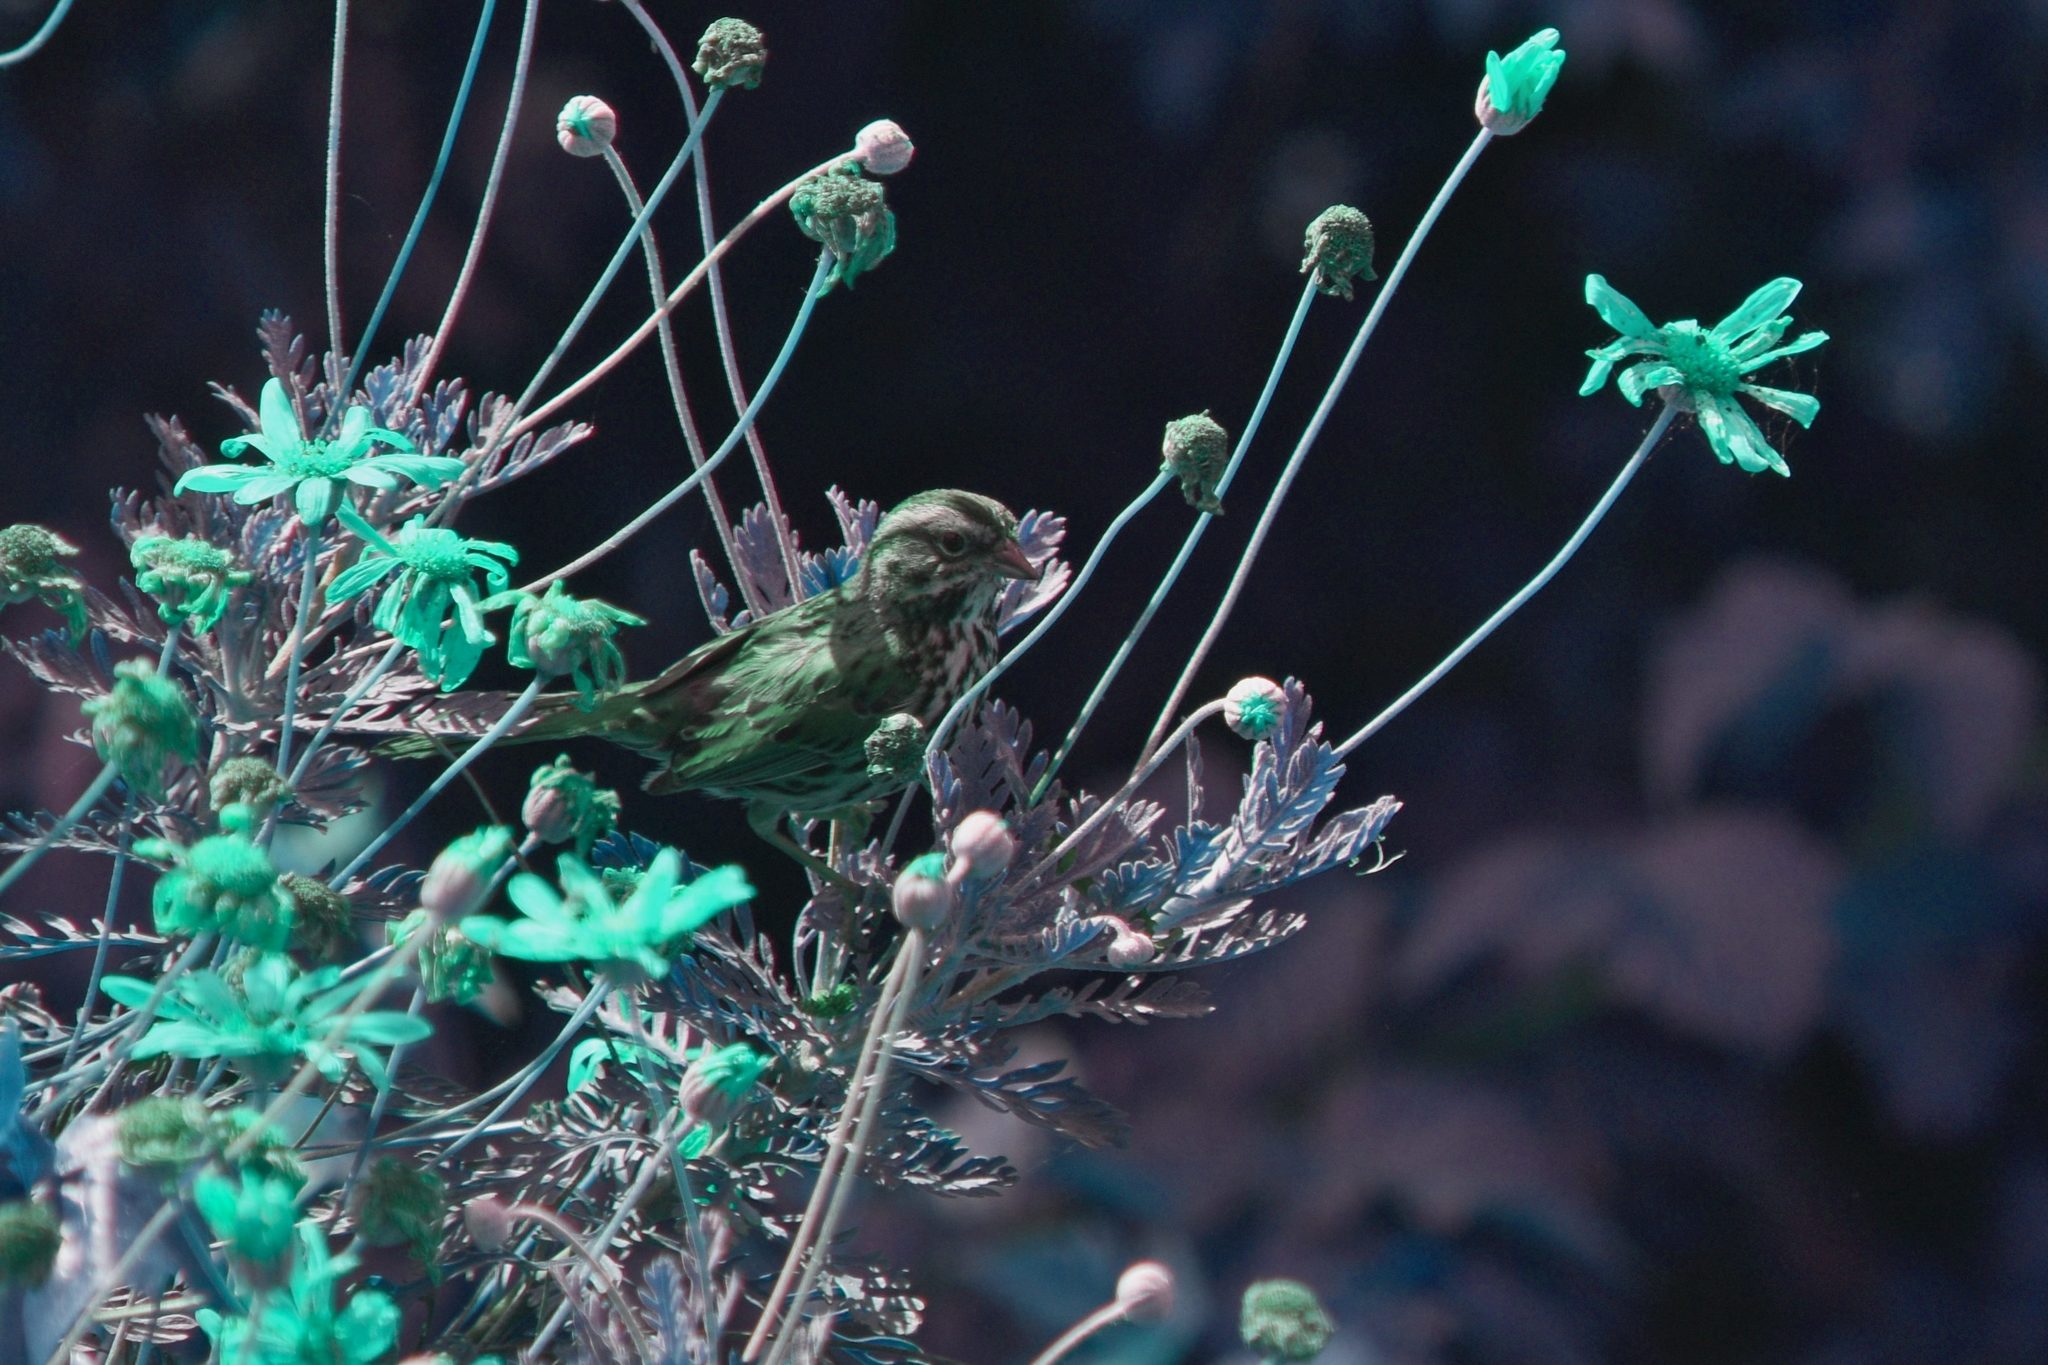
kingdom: Animalia
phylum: Chordata
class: Aves
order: Passeriformes
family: Passerellidae
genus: Melospiza
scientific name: Melospiza melodia
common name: Song sparrow
